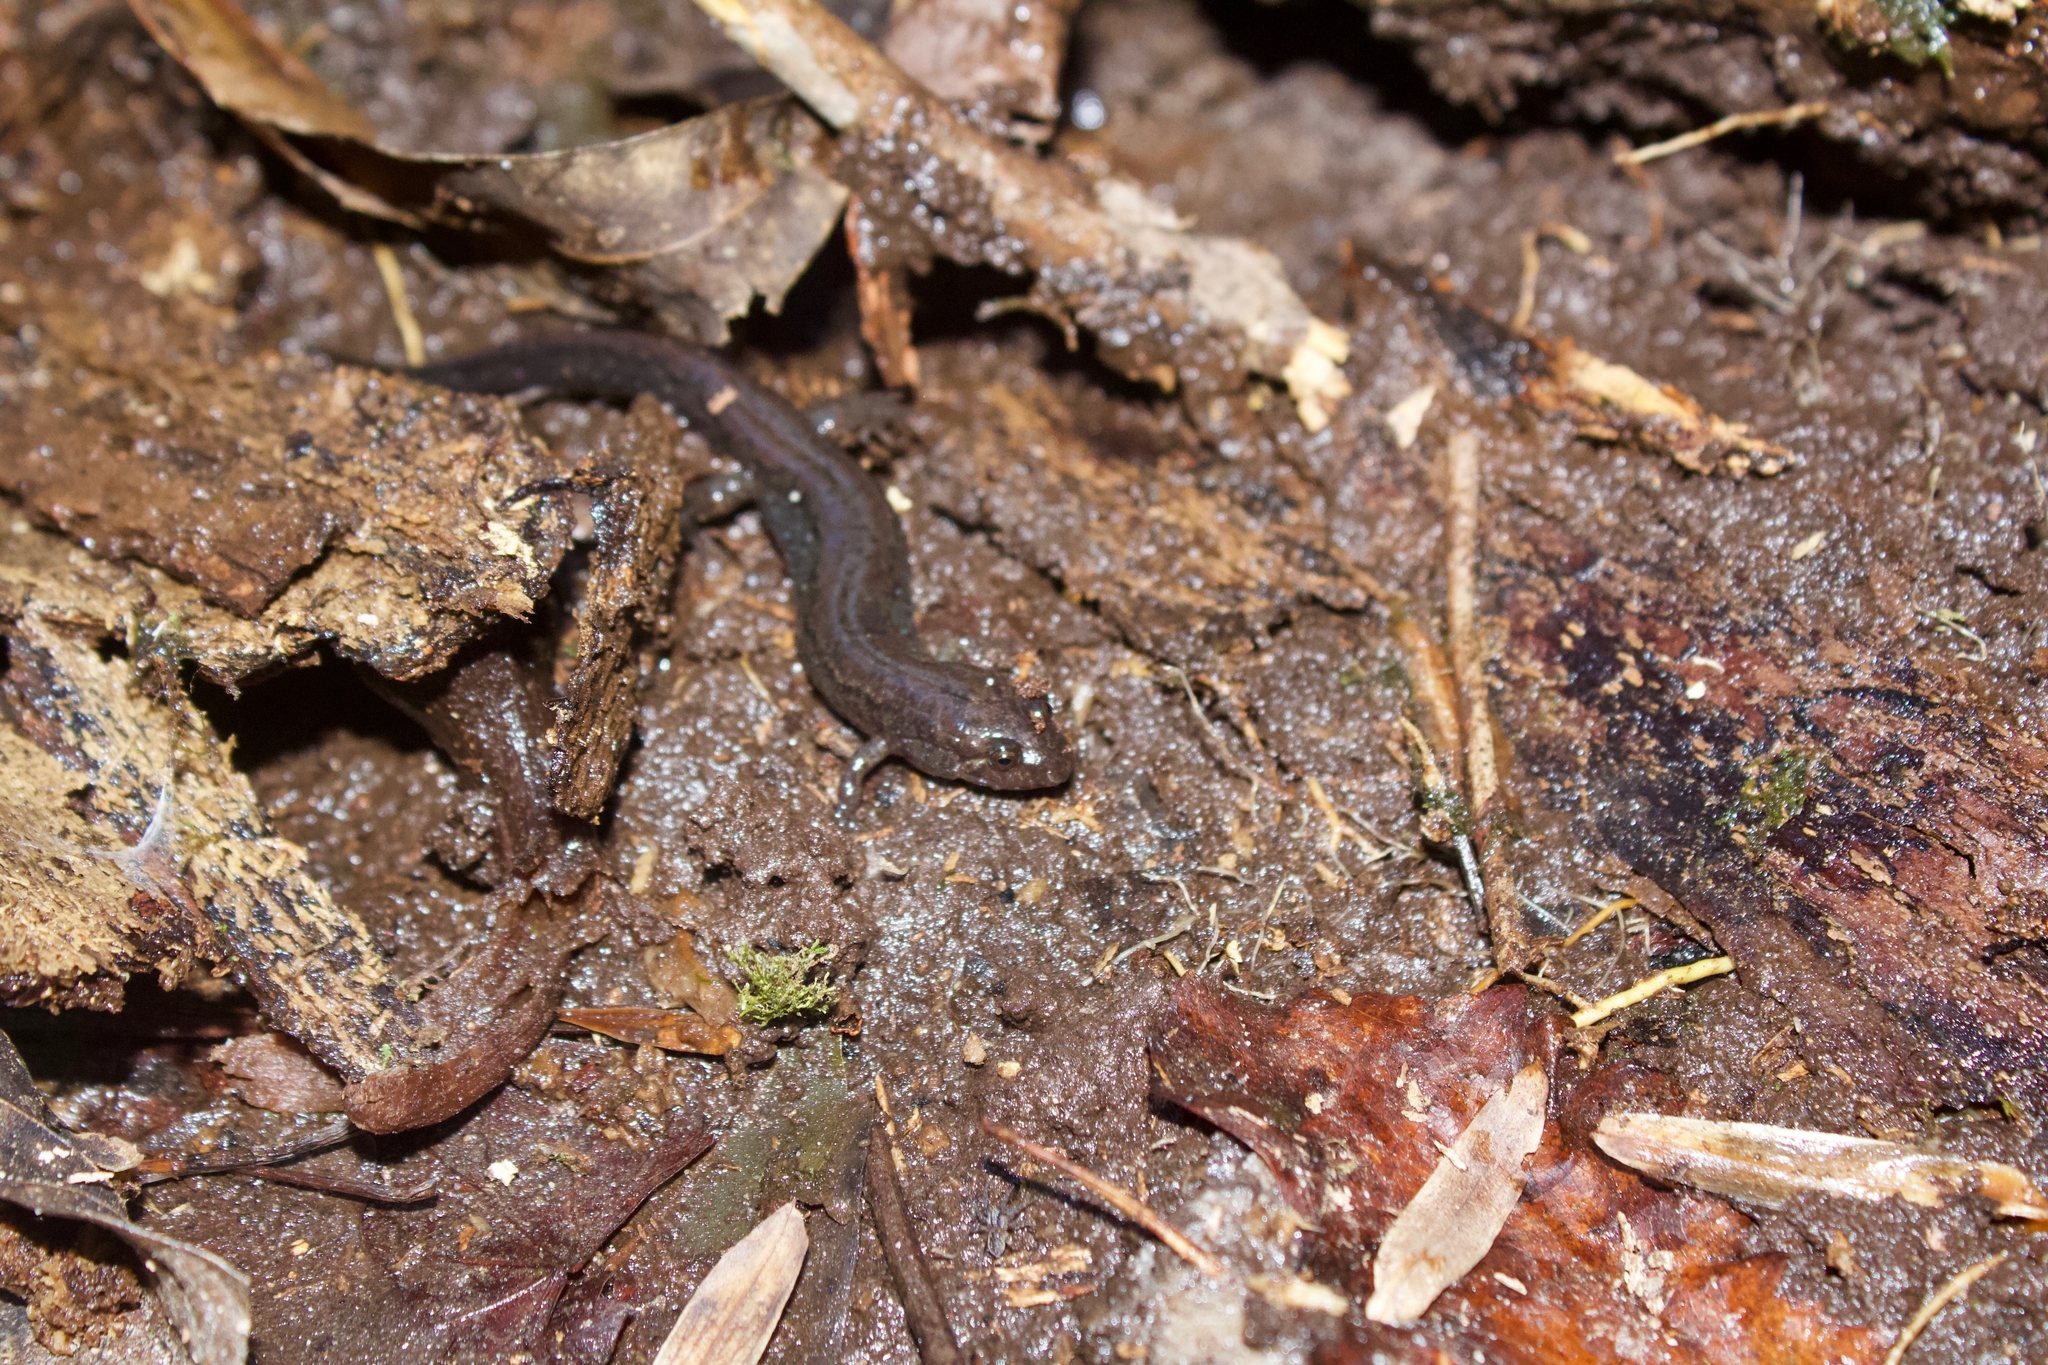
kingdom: Animalia
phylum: Chordata
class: Amphibia
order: Caudata
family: Plethodontidae
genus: Desmognathus
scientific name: Desmognathus conanti
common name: Spotted dusky salamander
